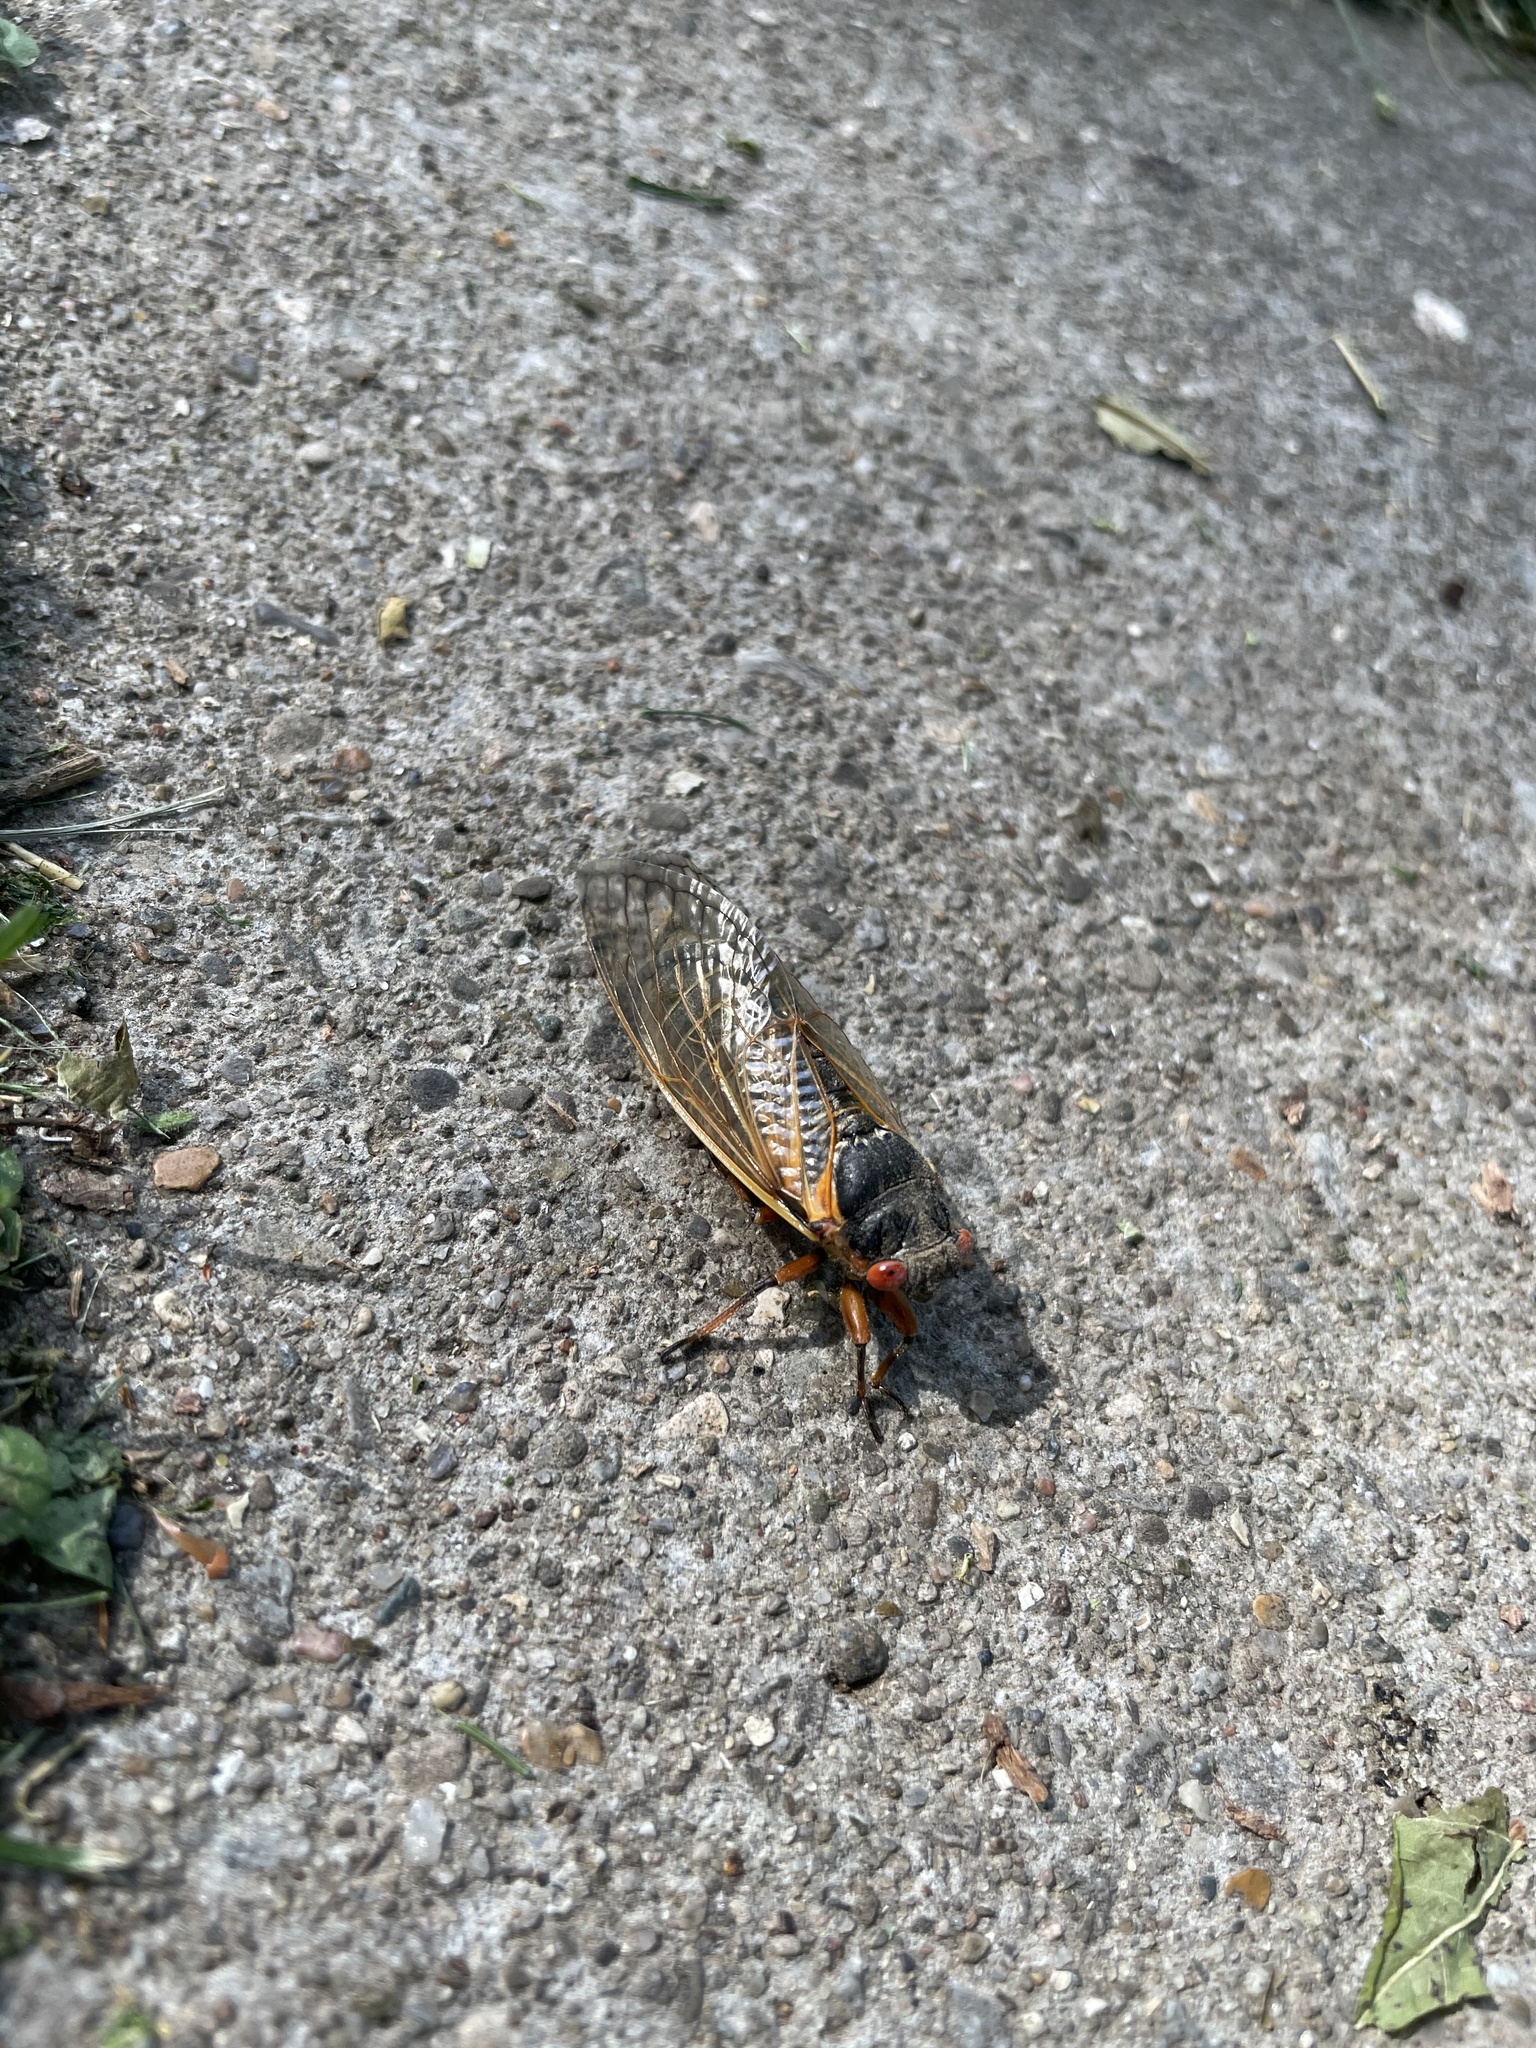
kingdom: Animalia
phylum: Arthropoda
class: Insecta
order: Hemiptera
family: Cicadidae
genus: Magicicada
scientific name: Magicicada
